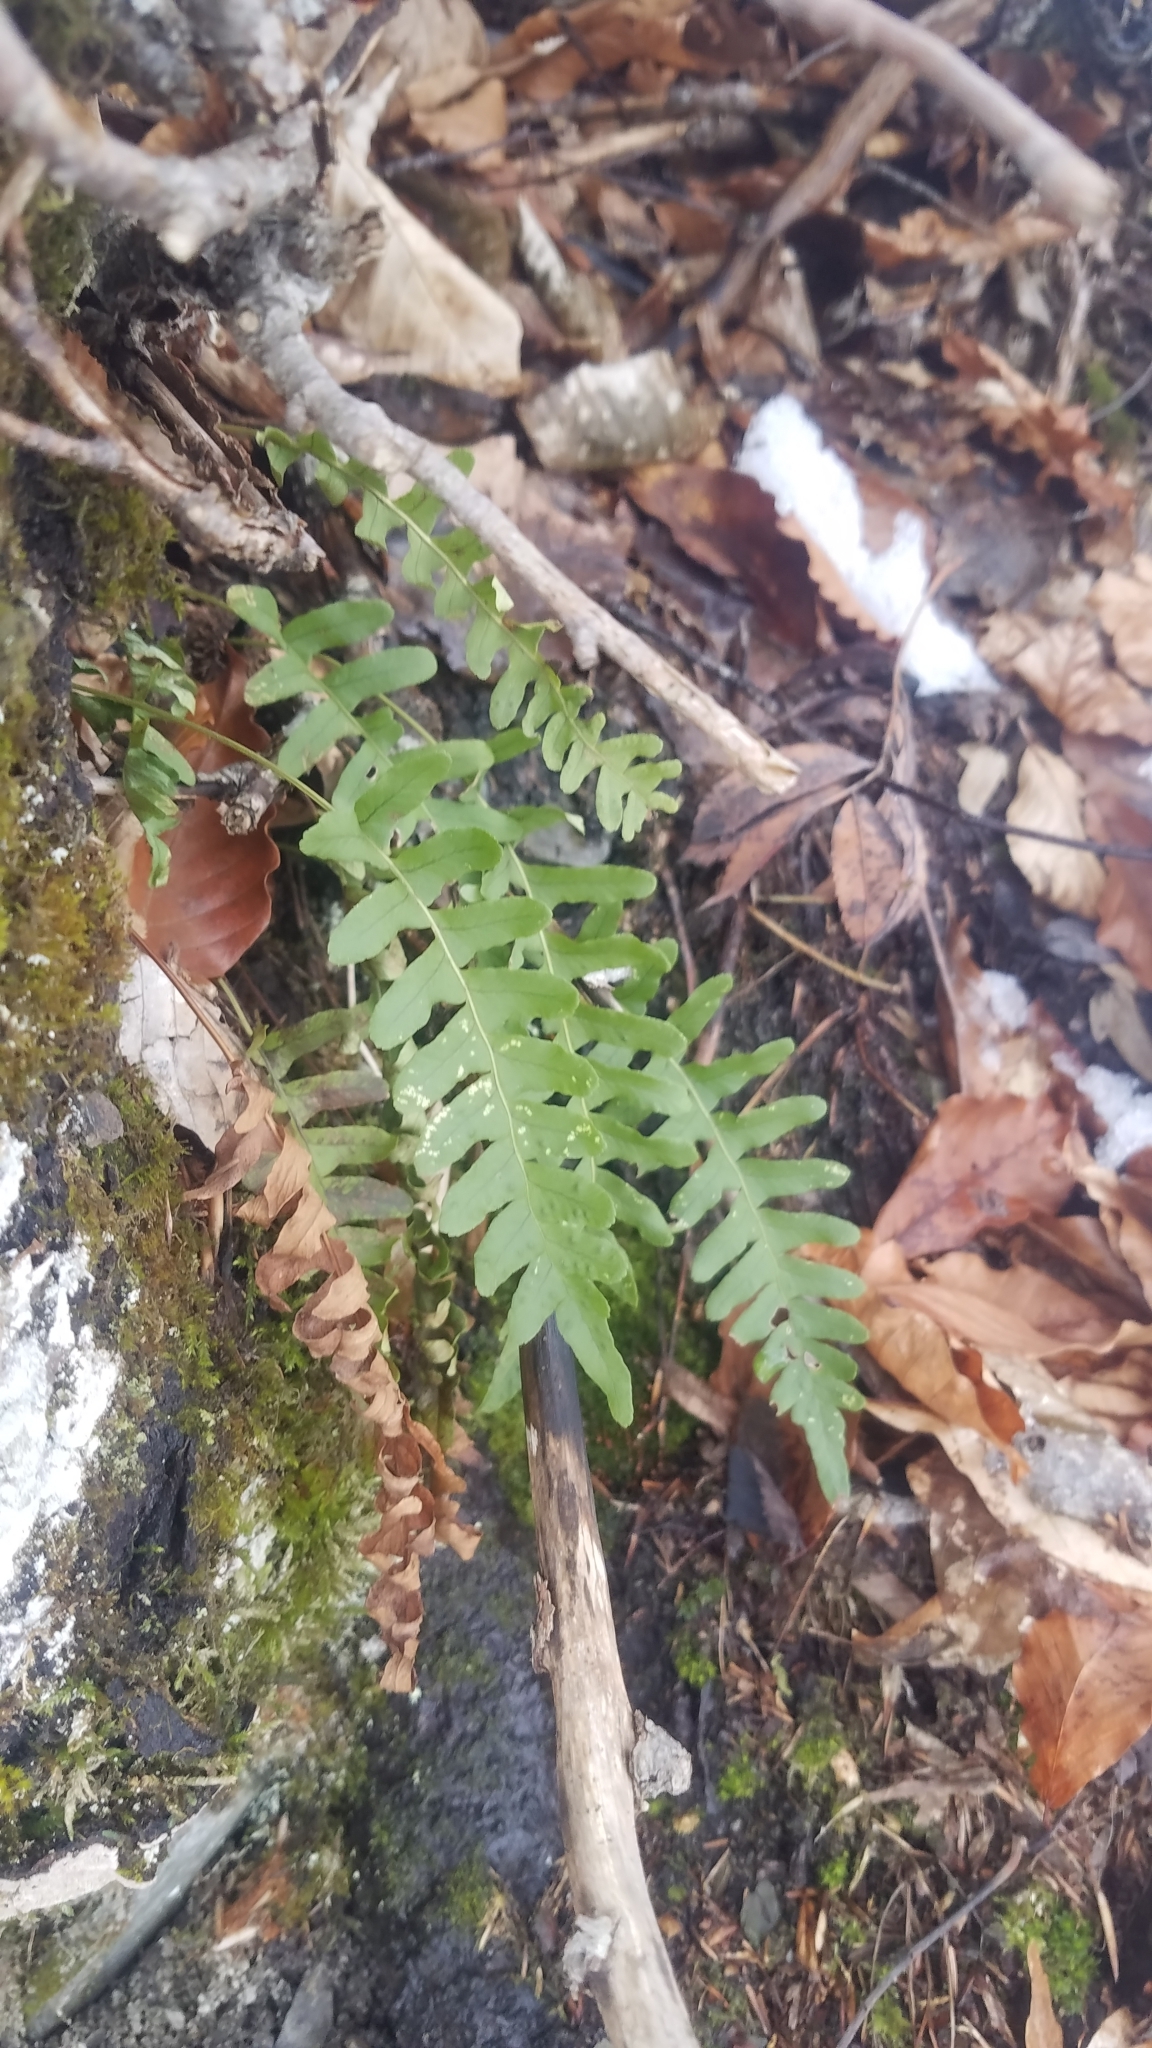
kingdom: Plantae
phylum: Tracheophyta
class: Polypodiopsida
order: Polypodiales
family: Polypodiaceae
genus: Polypodium
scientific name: Polypodium vulgare
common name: Common polypody
